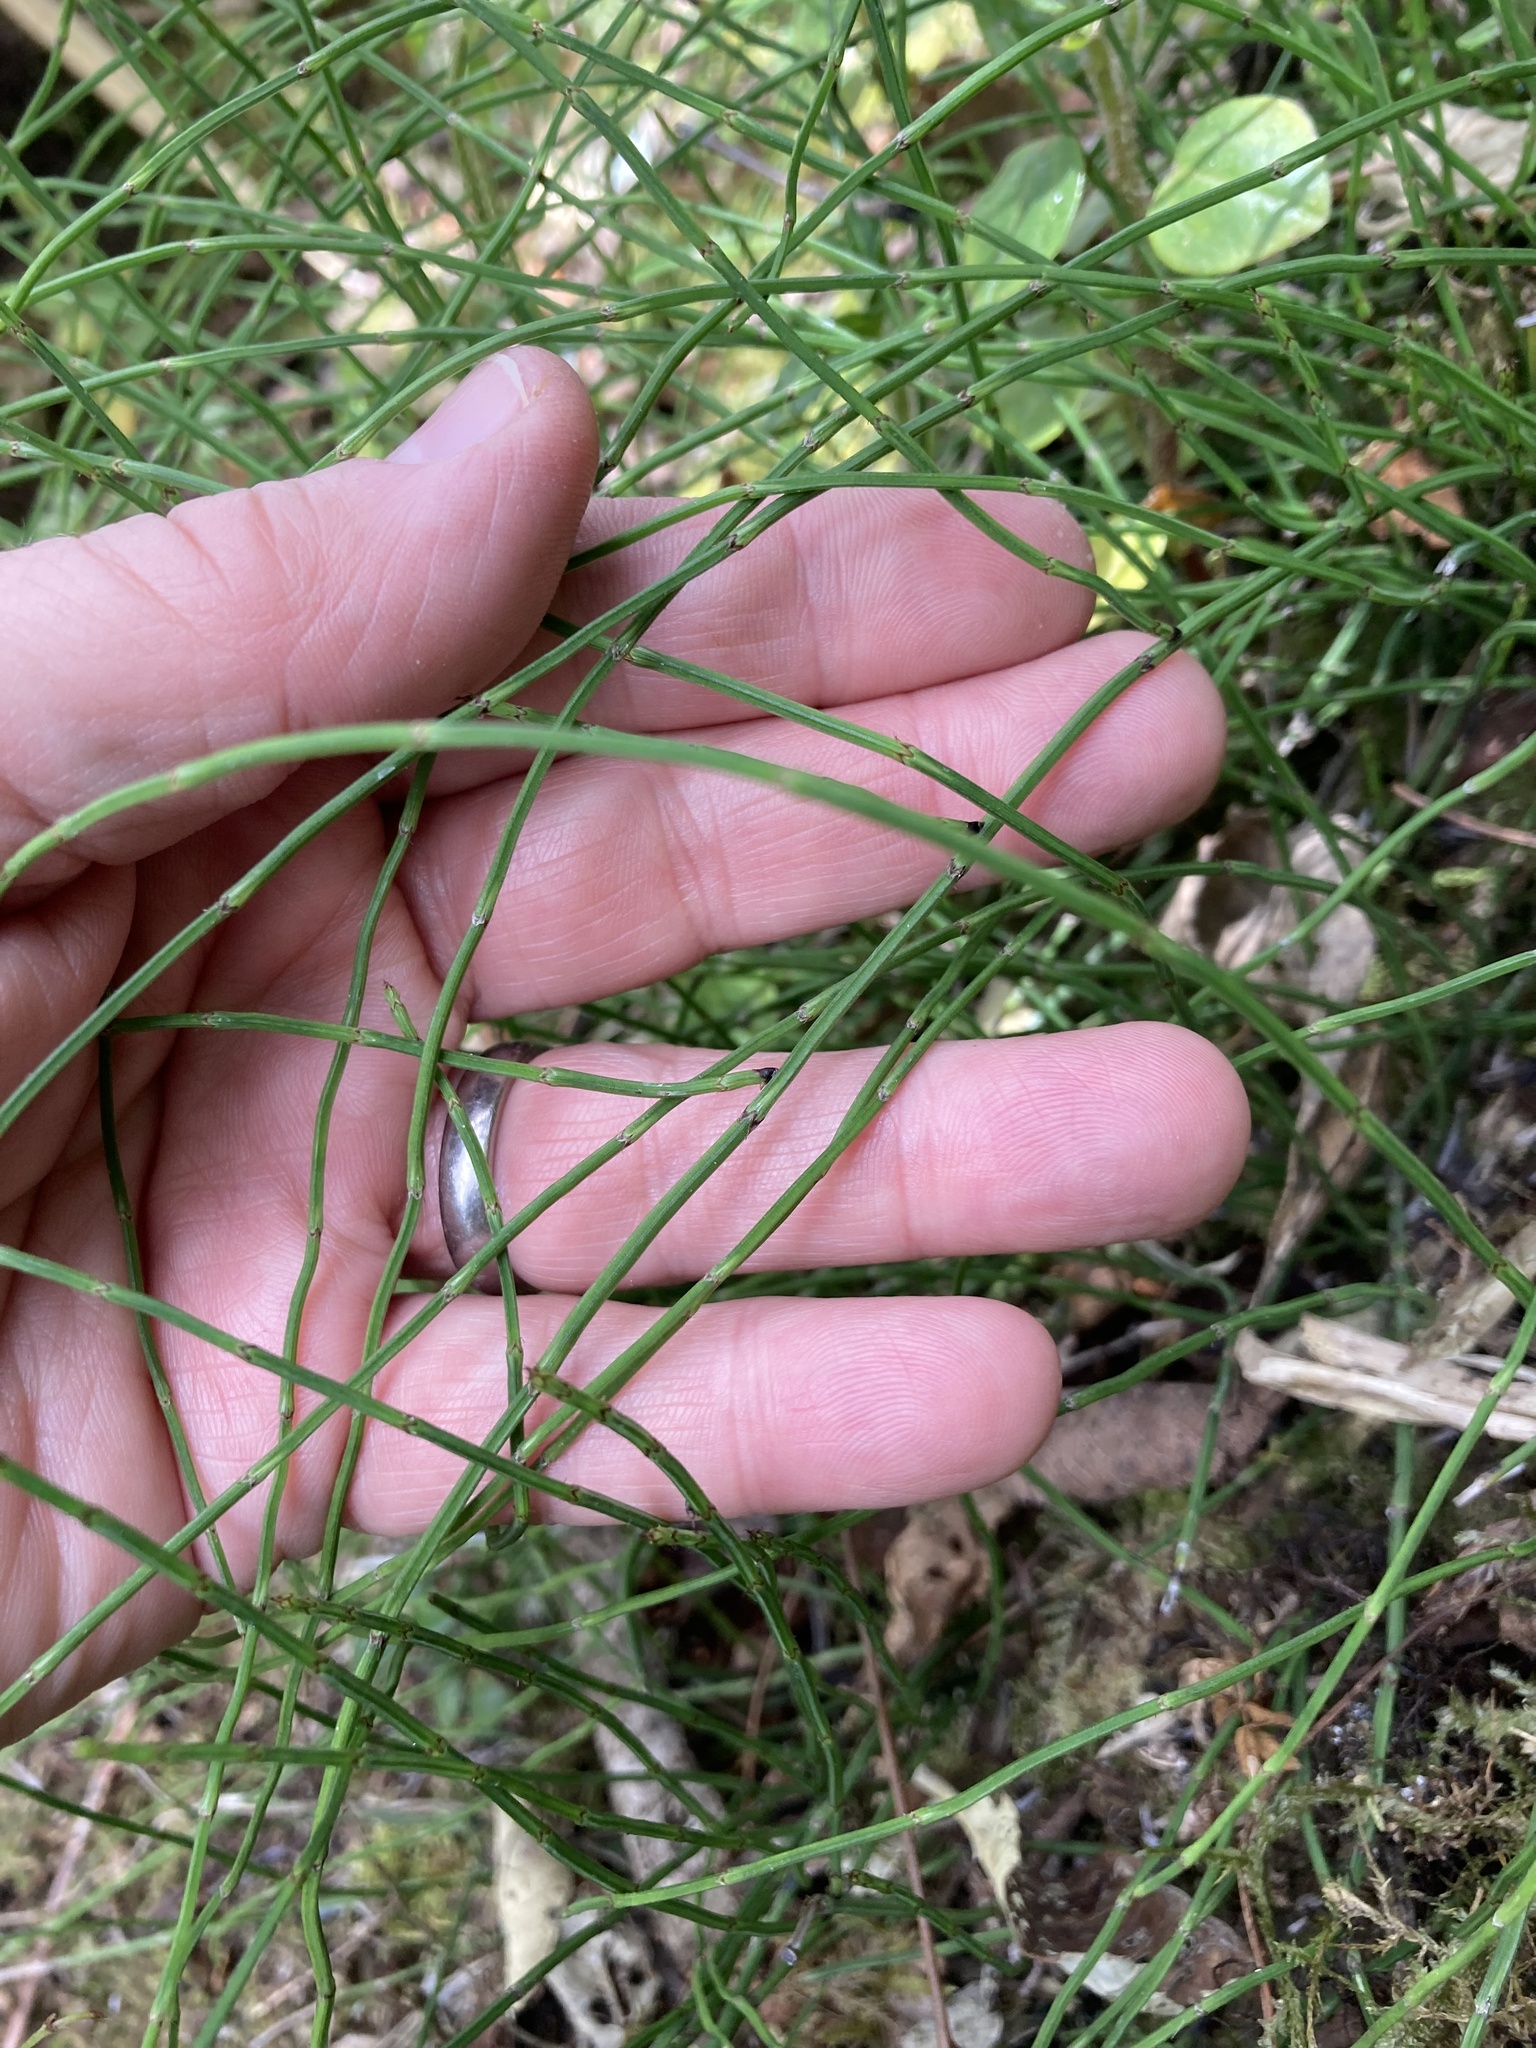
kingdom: Plantae
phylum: Tracheophyta
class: Polypodiopsida
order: Equisetales
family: Equisetaceae
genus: Equisetum
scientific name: Equisetum bogotense
